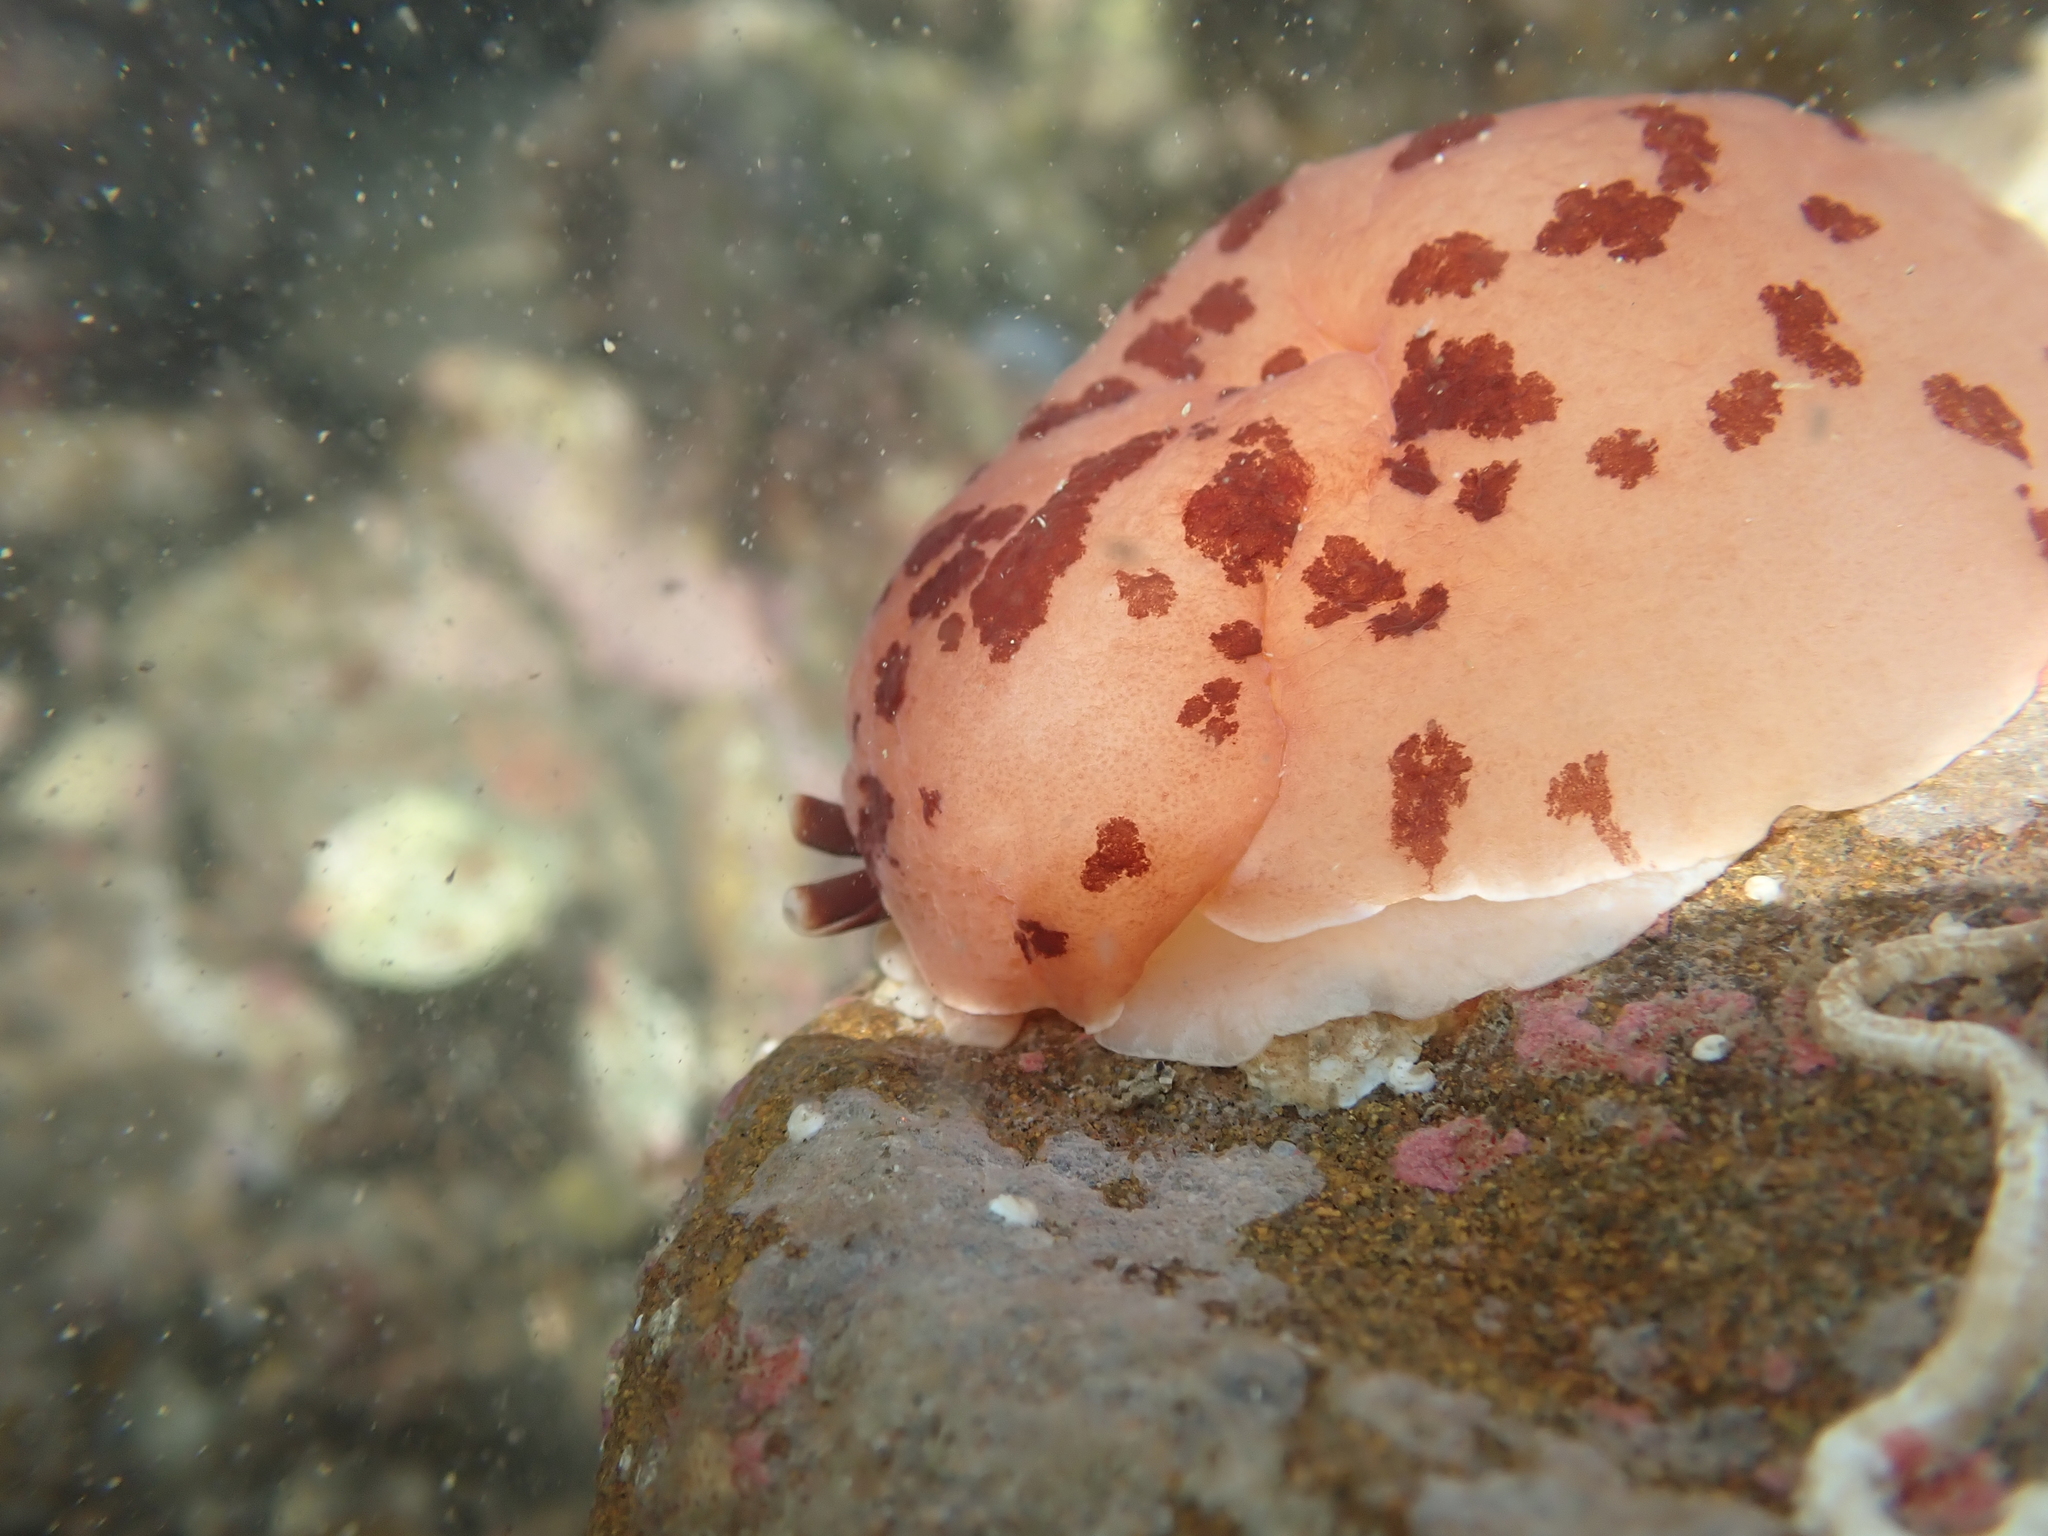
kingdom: Animalia
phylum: Mollusca
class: Gastropoda
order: Pleurobranchida
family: Pleurobranchidae
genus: Berthella
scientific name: Berthella ornata
